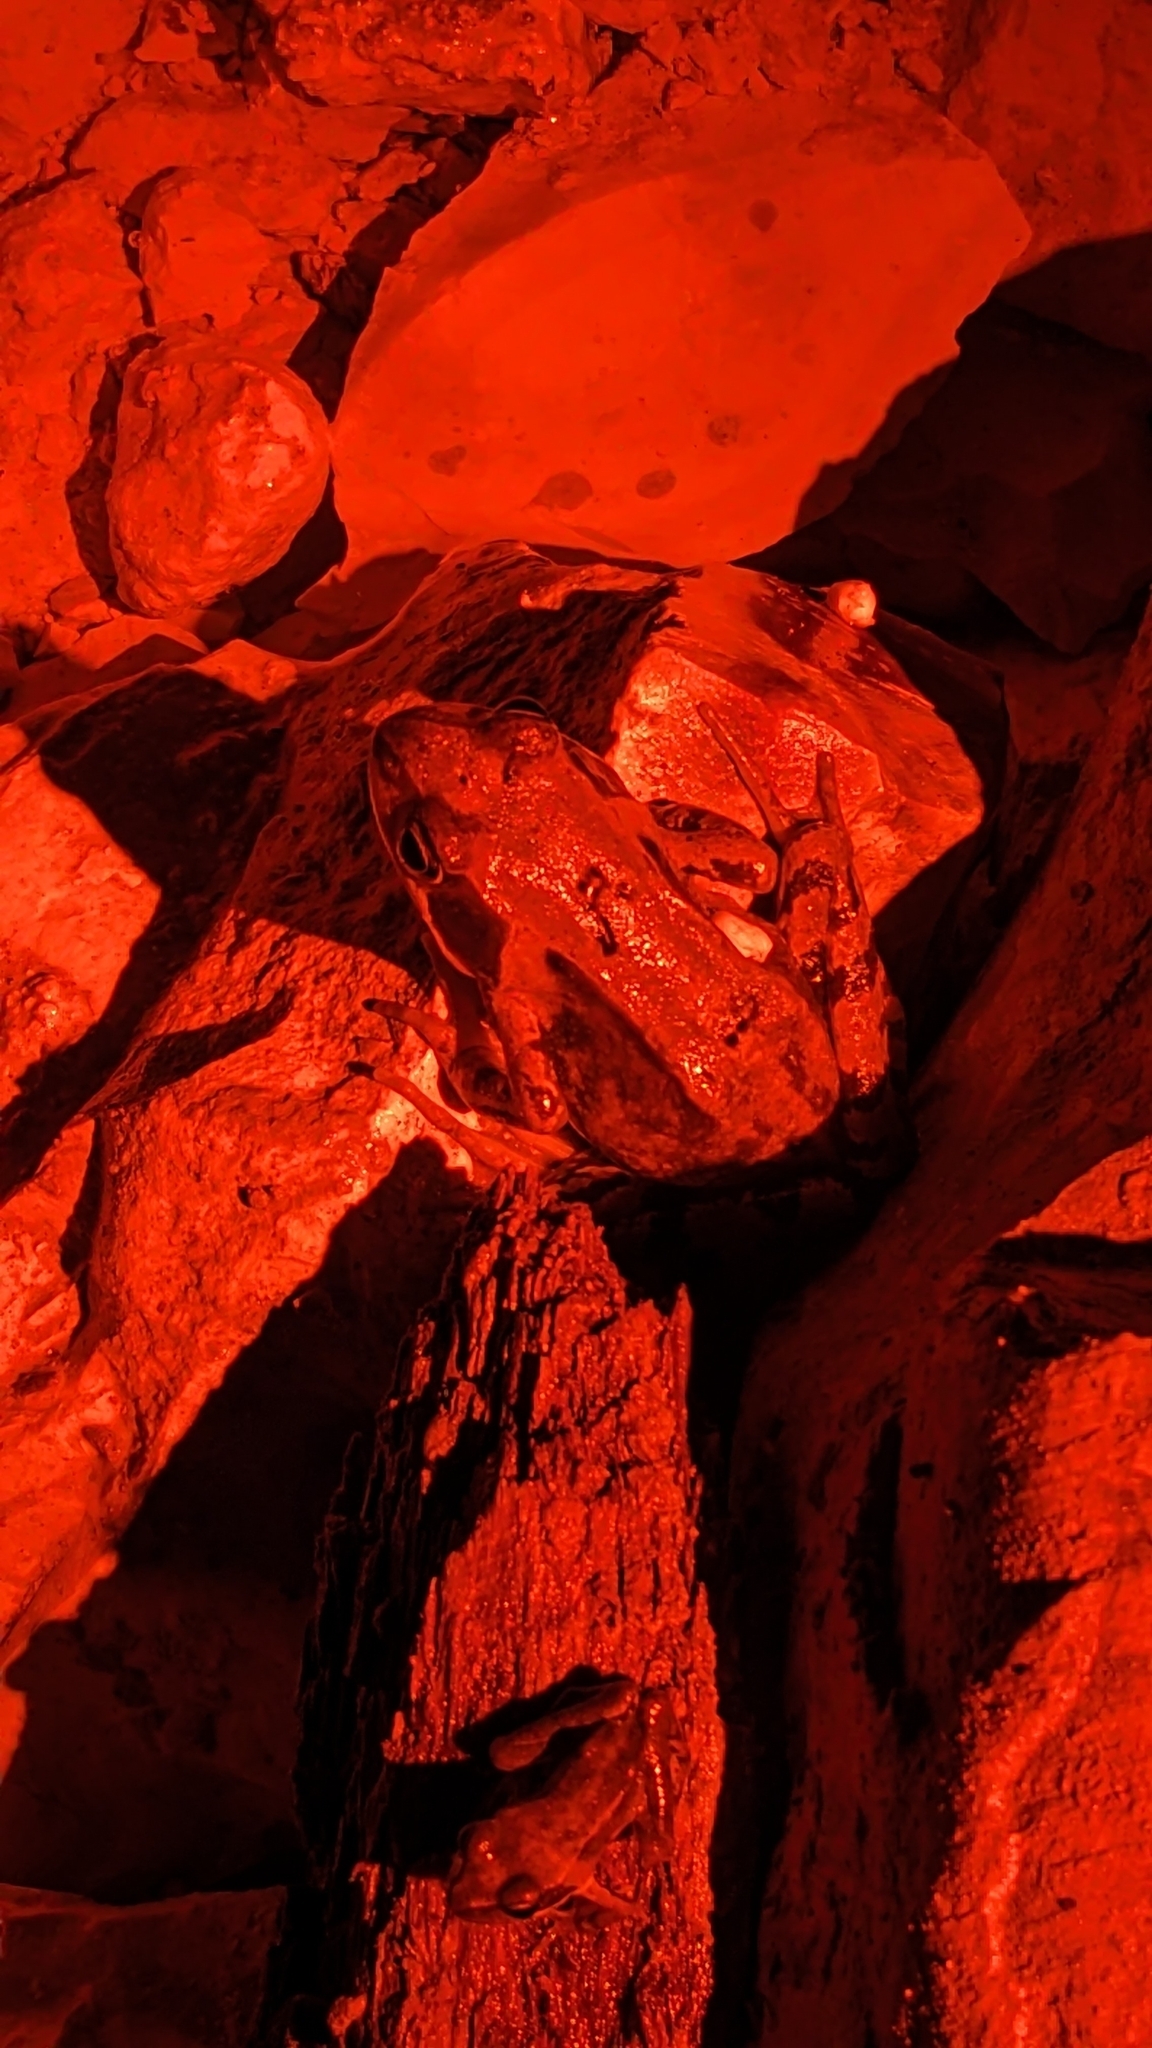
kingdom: Animalia
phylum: Chordata
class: Amphibia
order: Anura
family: Ranidae
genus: Rana
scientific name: Rana temporaria
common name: Common frog
